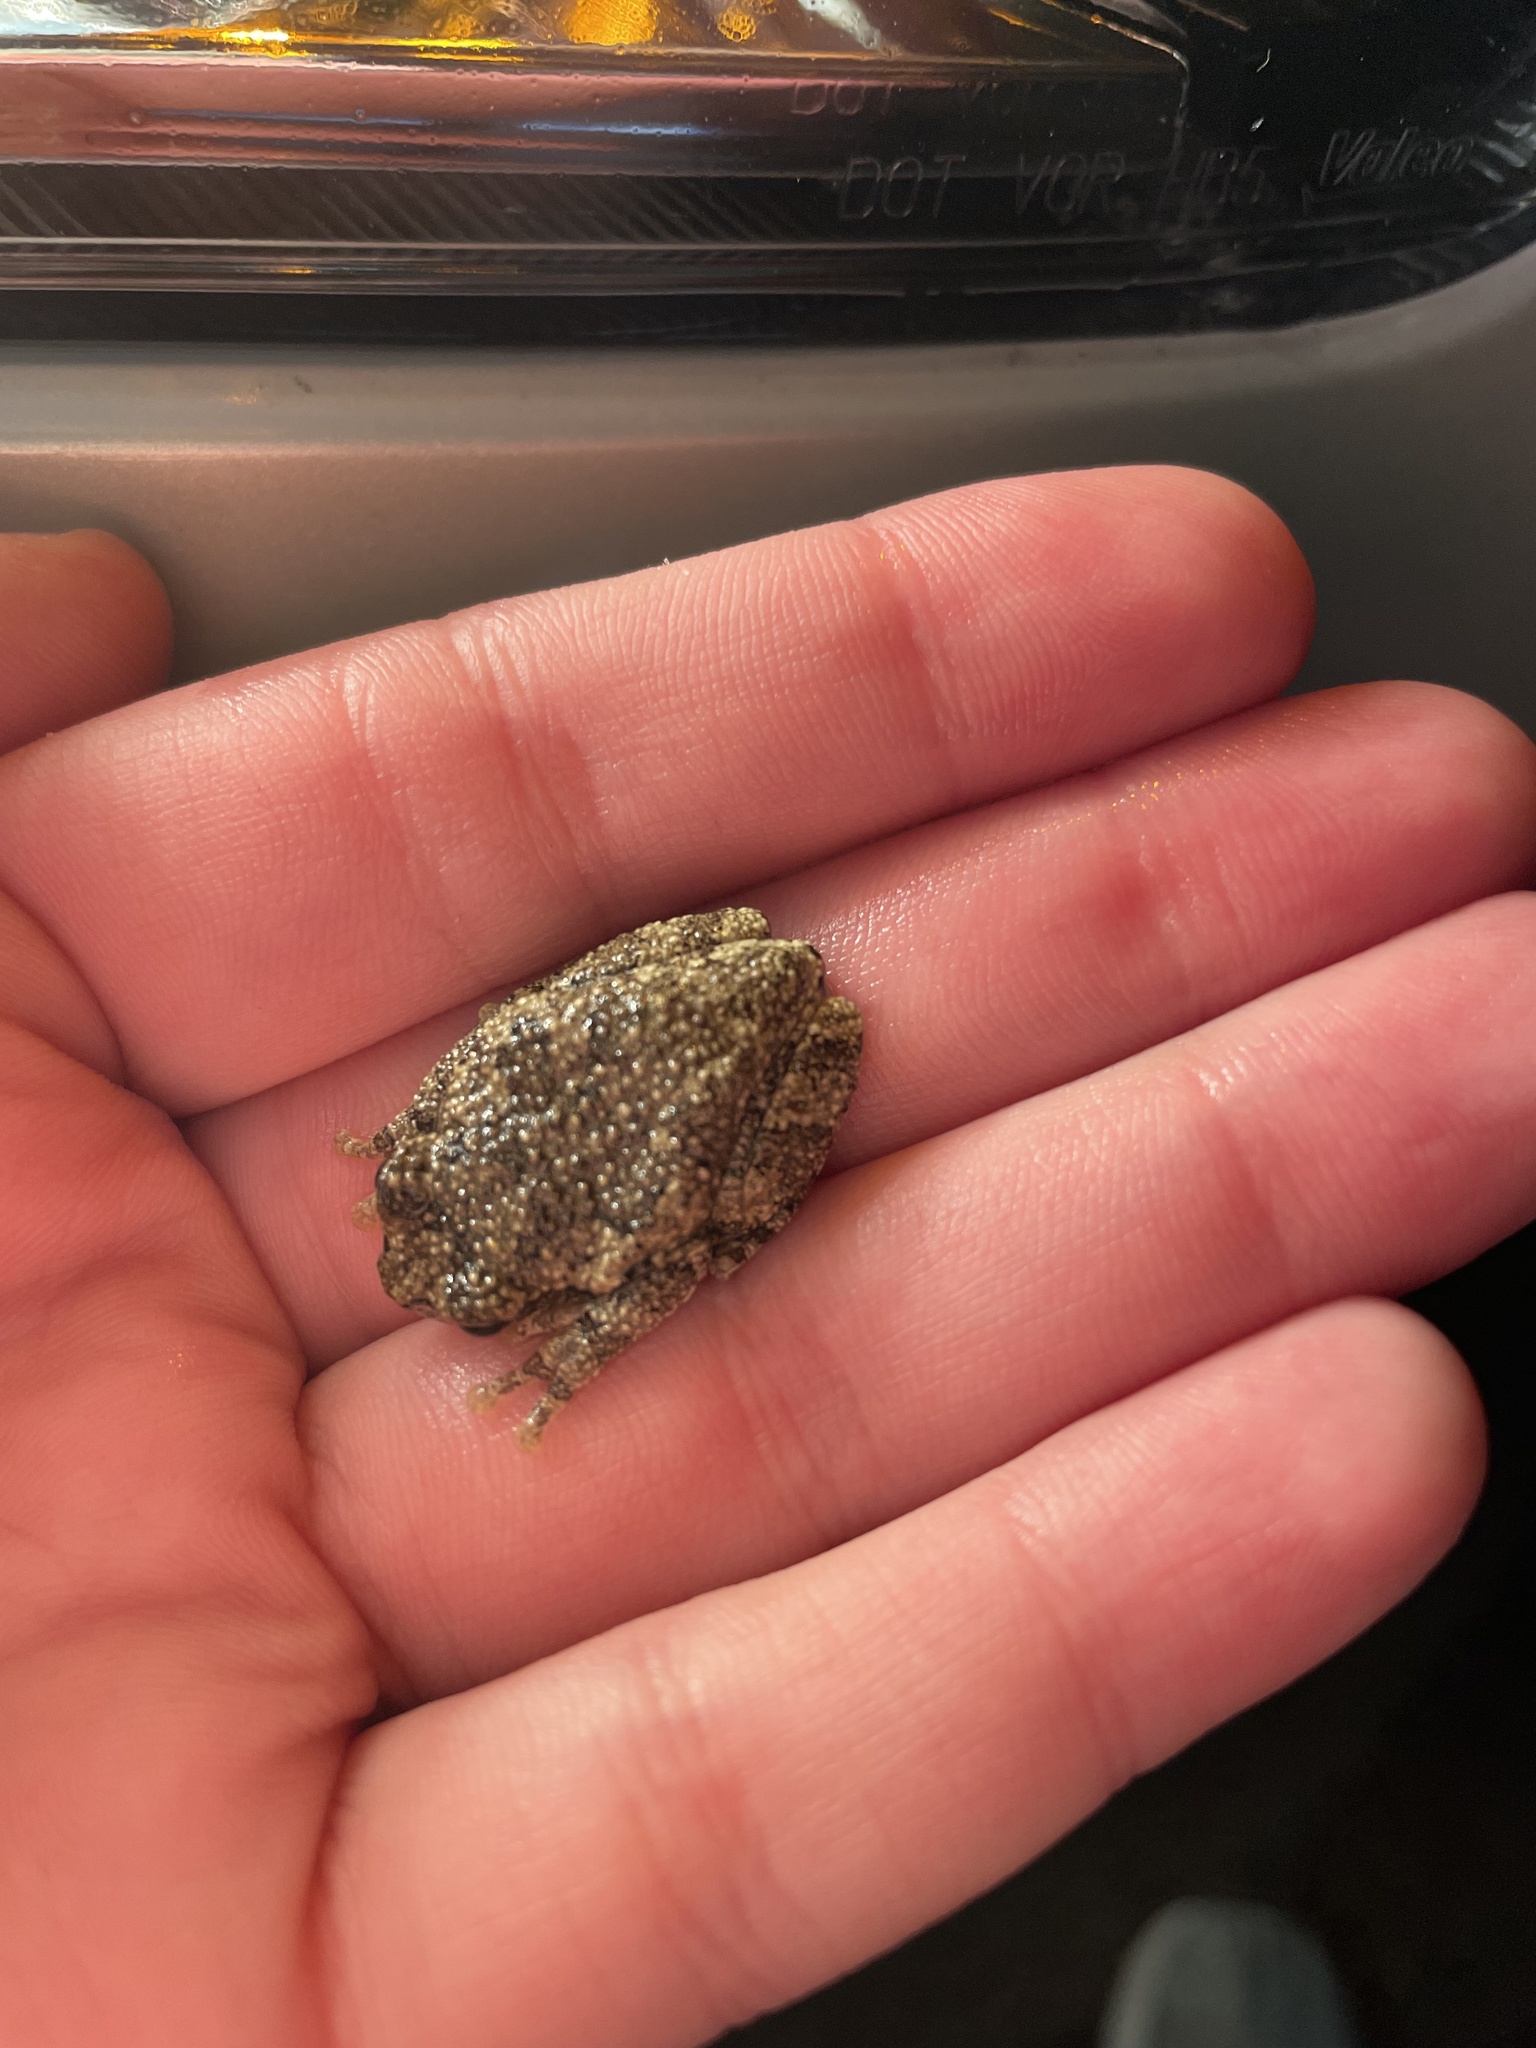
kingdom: Animalia
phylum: Chordata
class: Amphibia
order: Anura
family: Hylidae
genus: Dryophytes
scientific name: Dryophytes chrysoscelis
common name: Cope's gray treefrog
